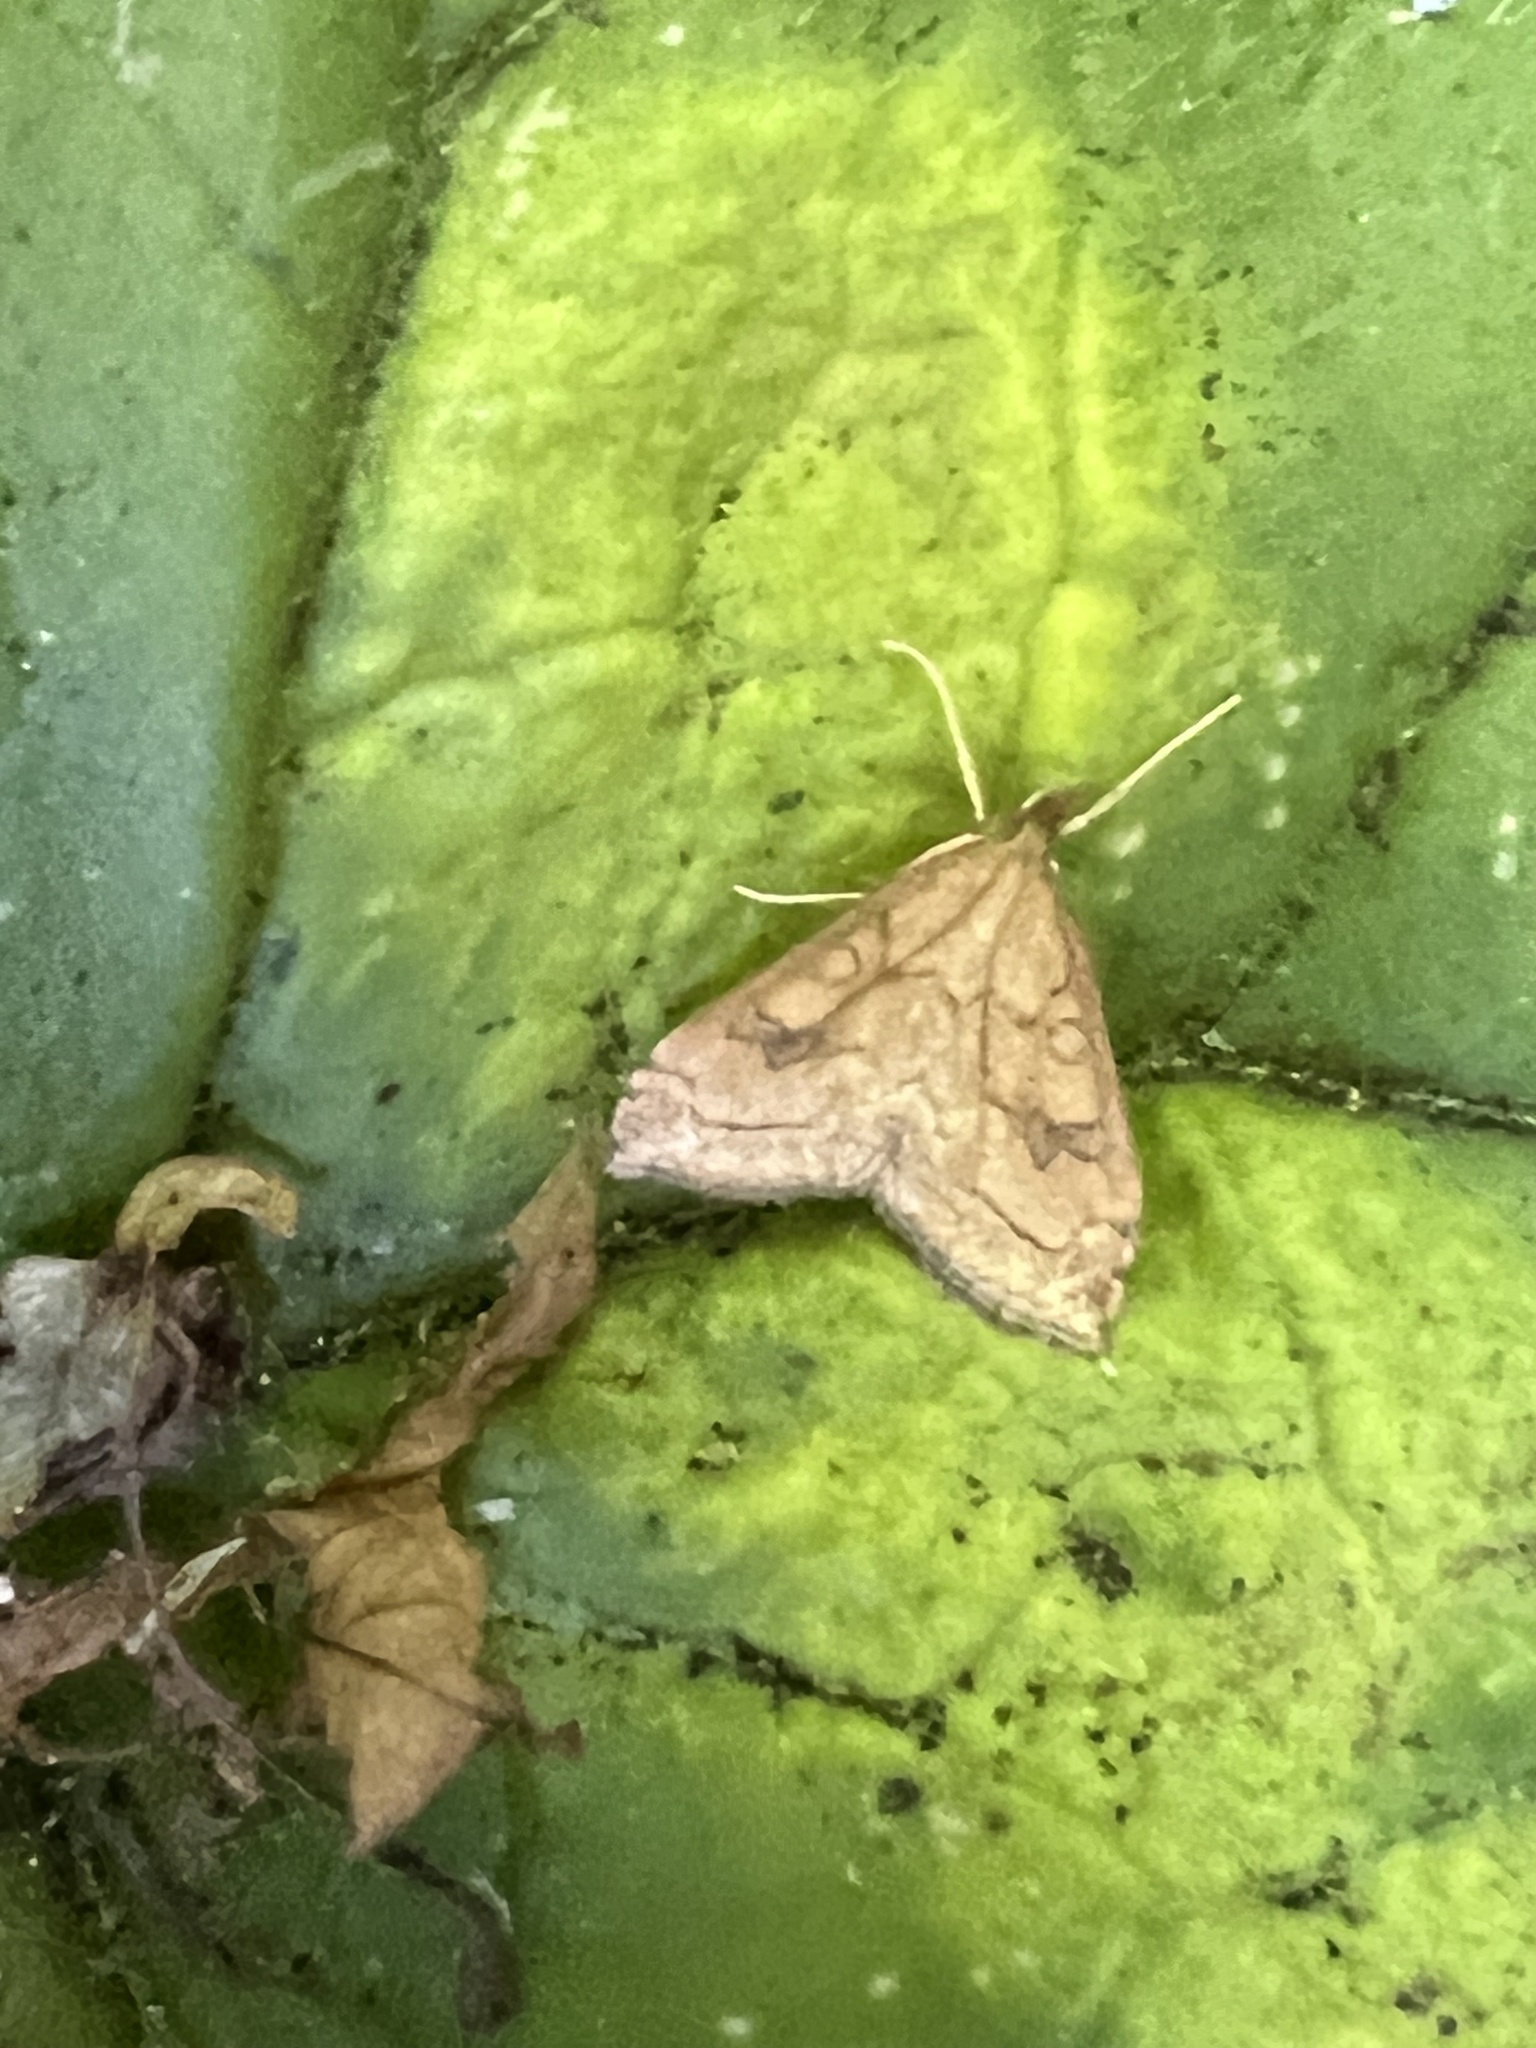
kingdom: Animalia
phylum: Arthropoda
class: Insecta
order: Lepidoptera
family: Crambidae
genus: Udea
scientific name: Udea profundalis
